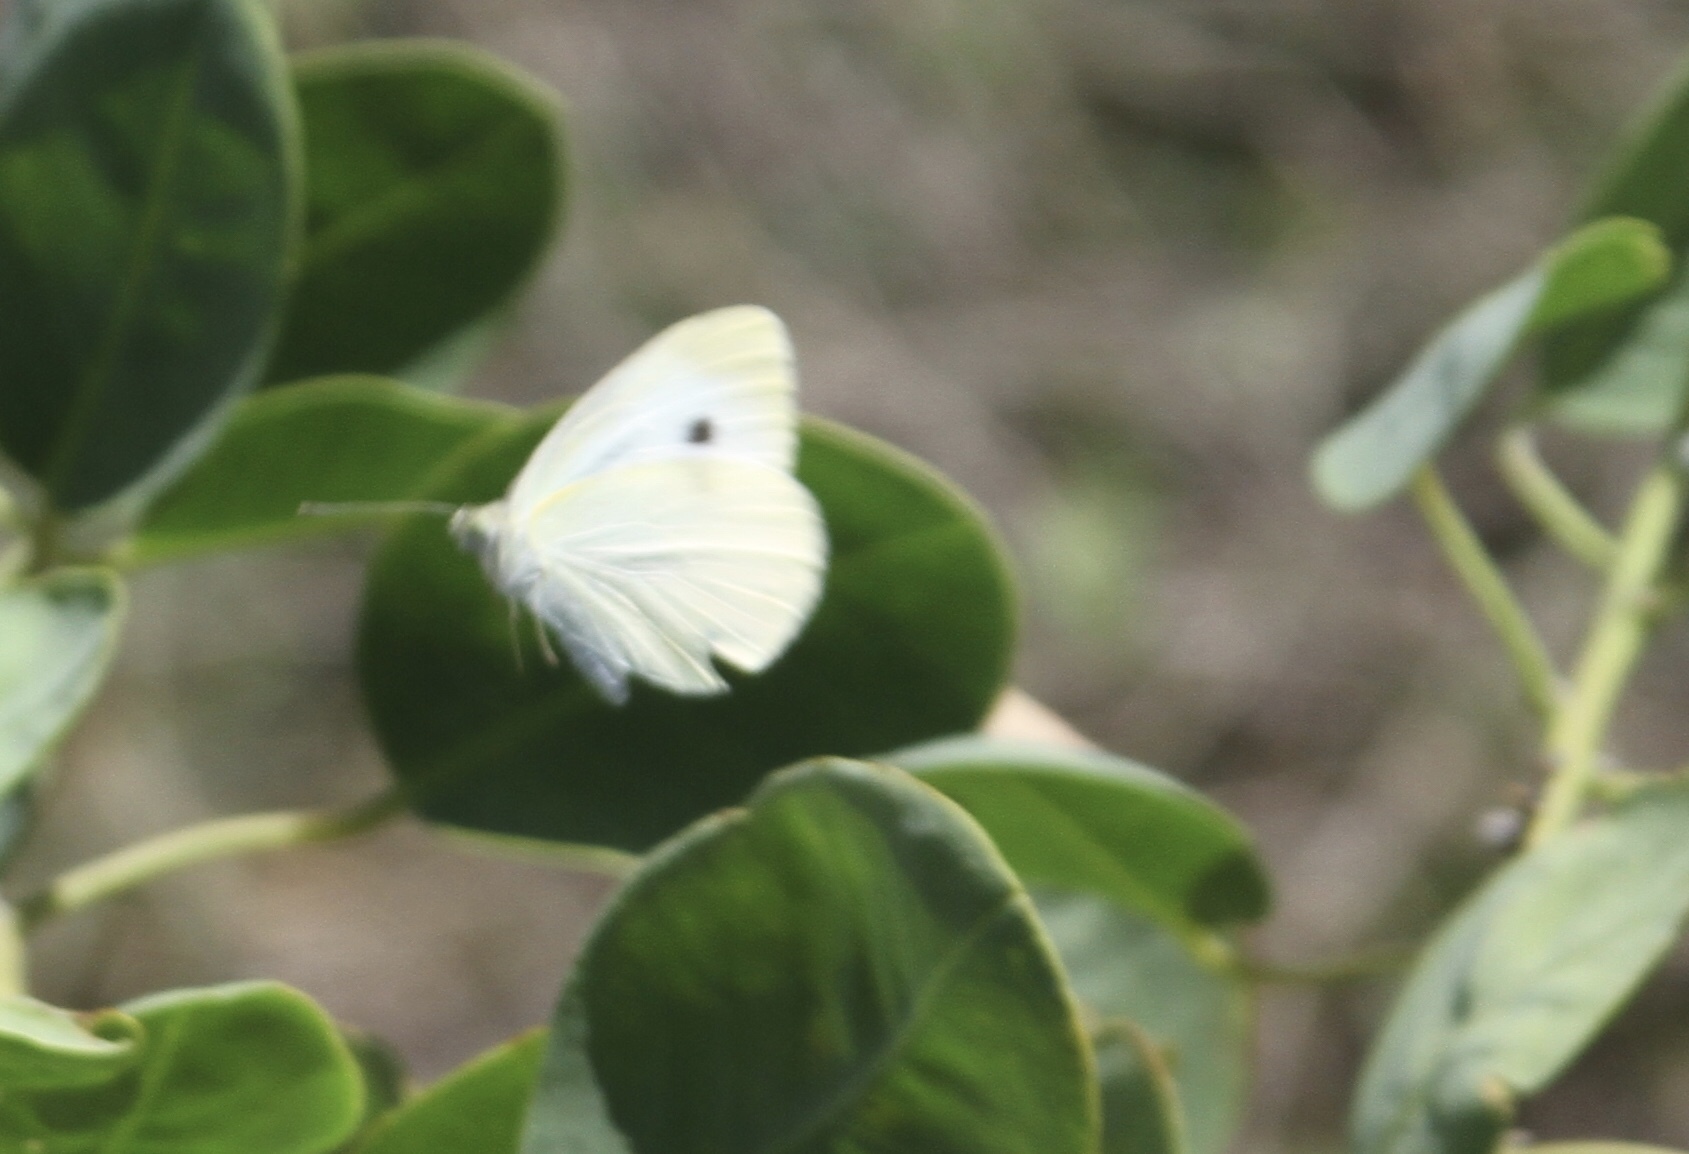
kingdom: Animalia
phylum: Arthropoda
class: Insecta
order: Lepidoptera
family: Pieridae
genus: Pieris
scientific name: Pieris rapae
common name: Small white
